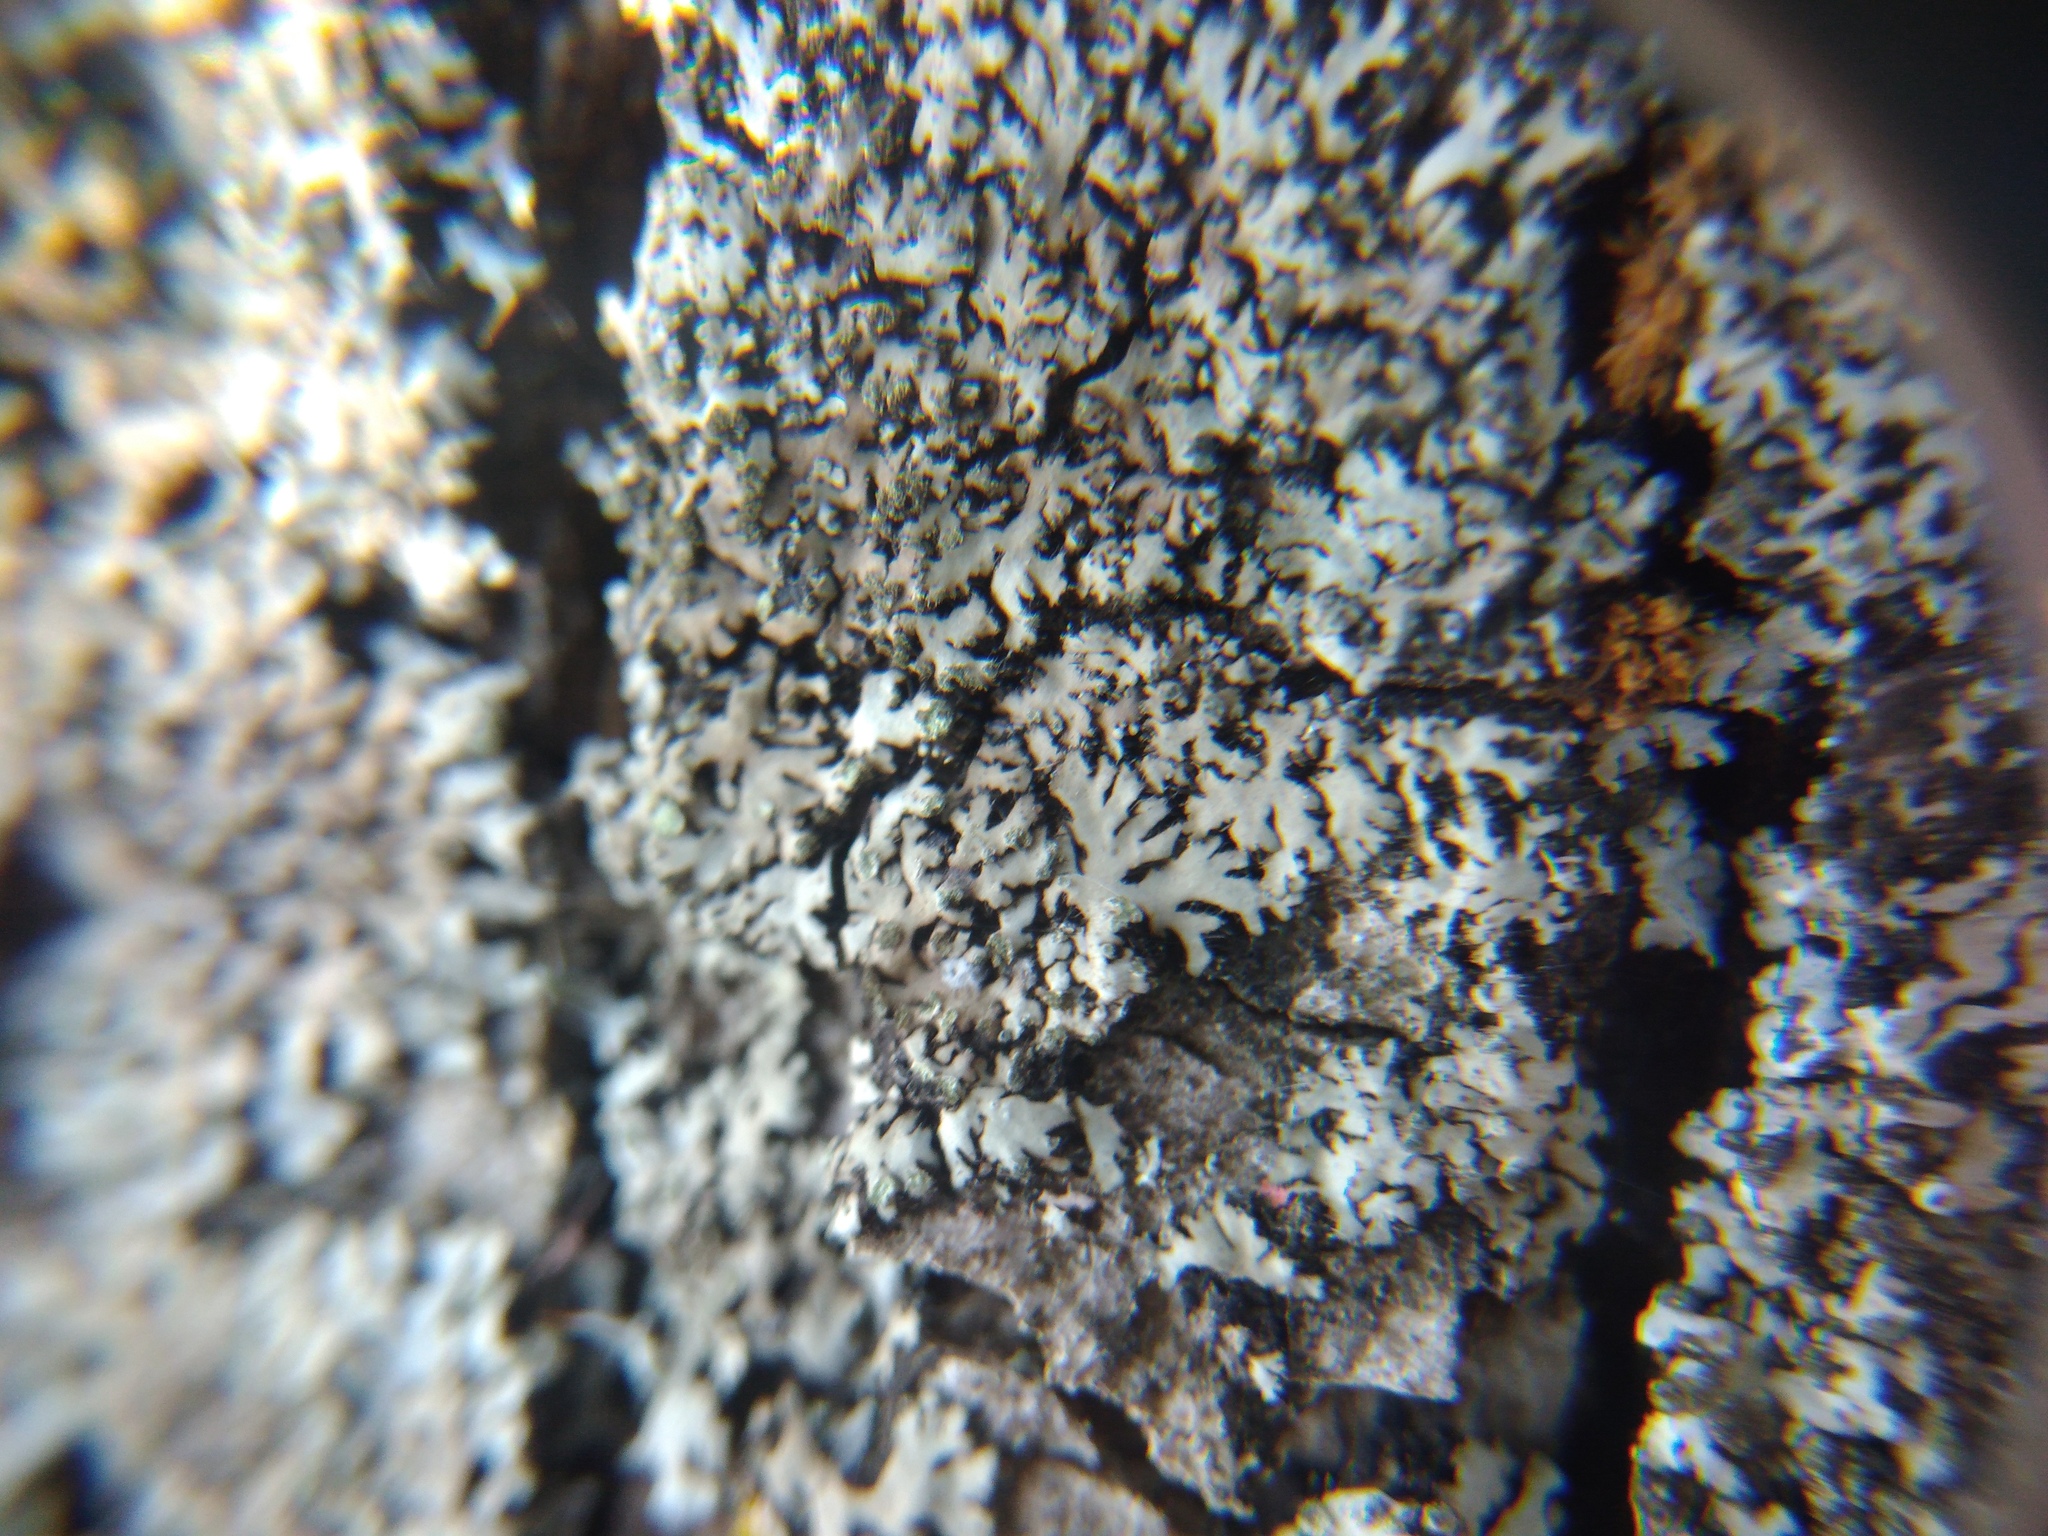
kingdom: Fungi
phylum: Ascomycota
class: Lecanoromycetes
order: Caliciales
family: Physciaceae
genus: Phaeophyscia
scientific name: Phaeophyscia orbicularis
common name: Mealy shadow lichen
